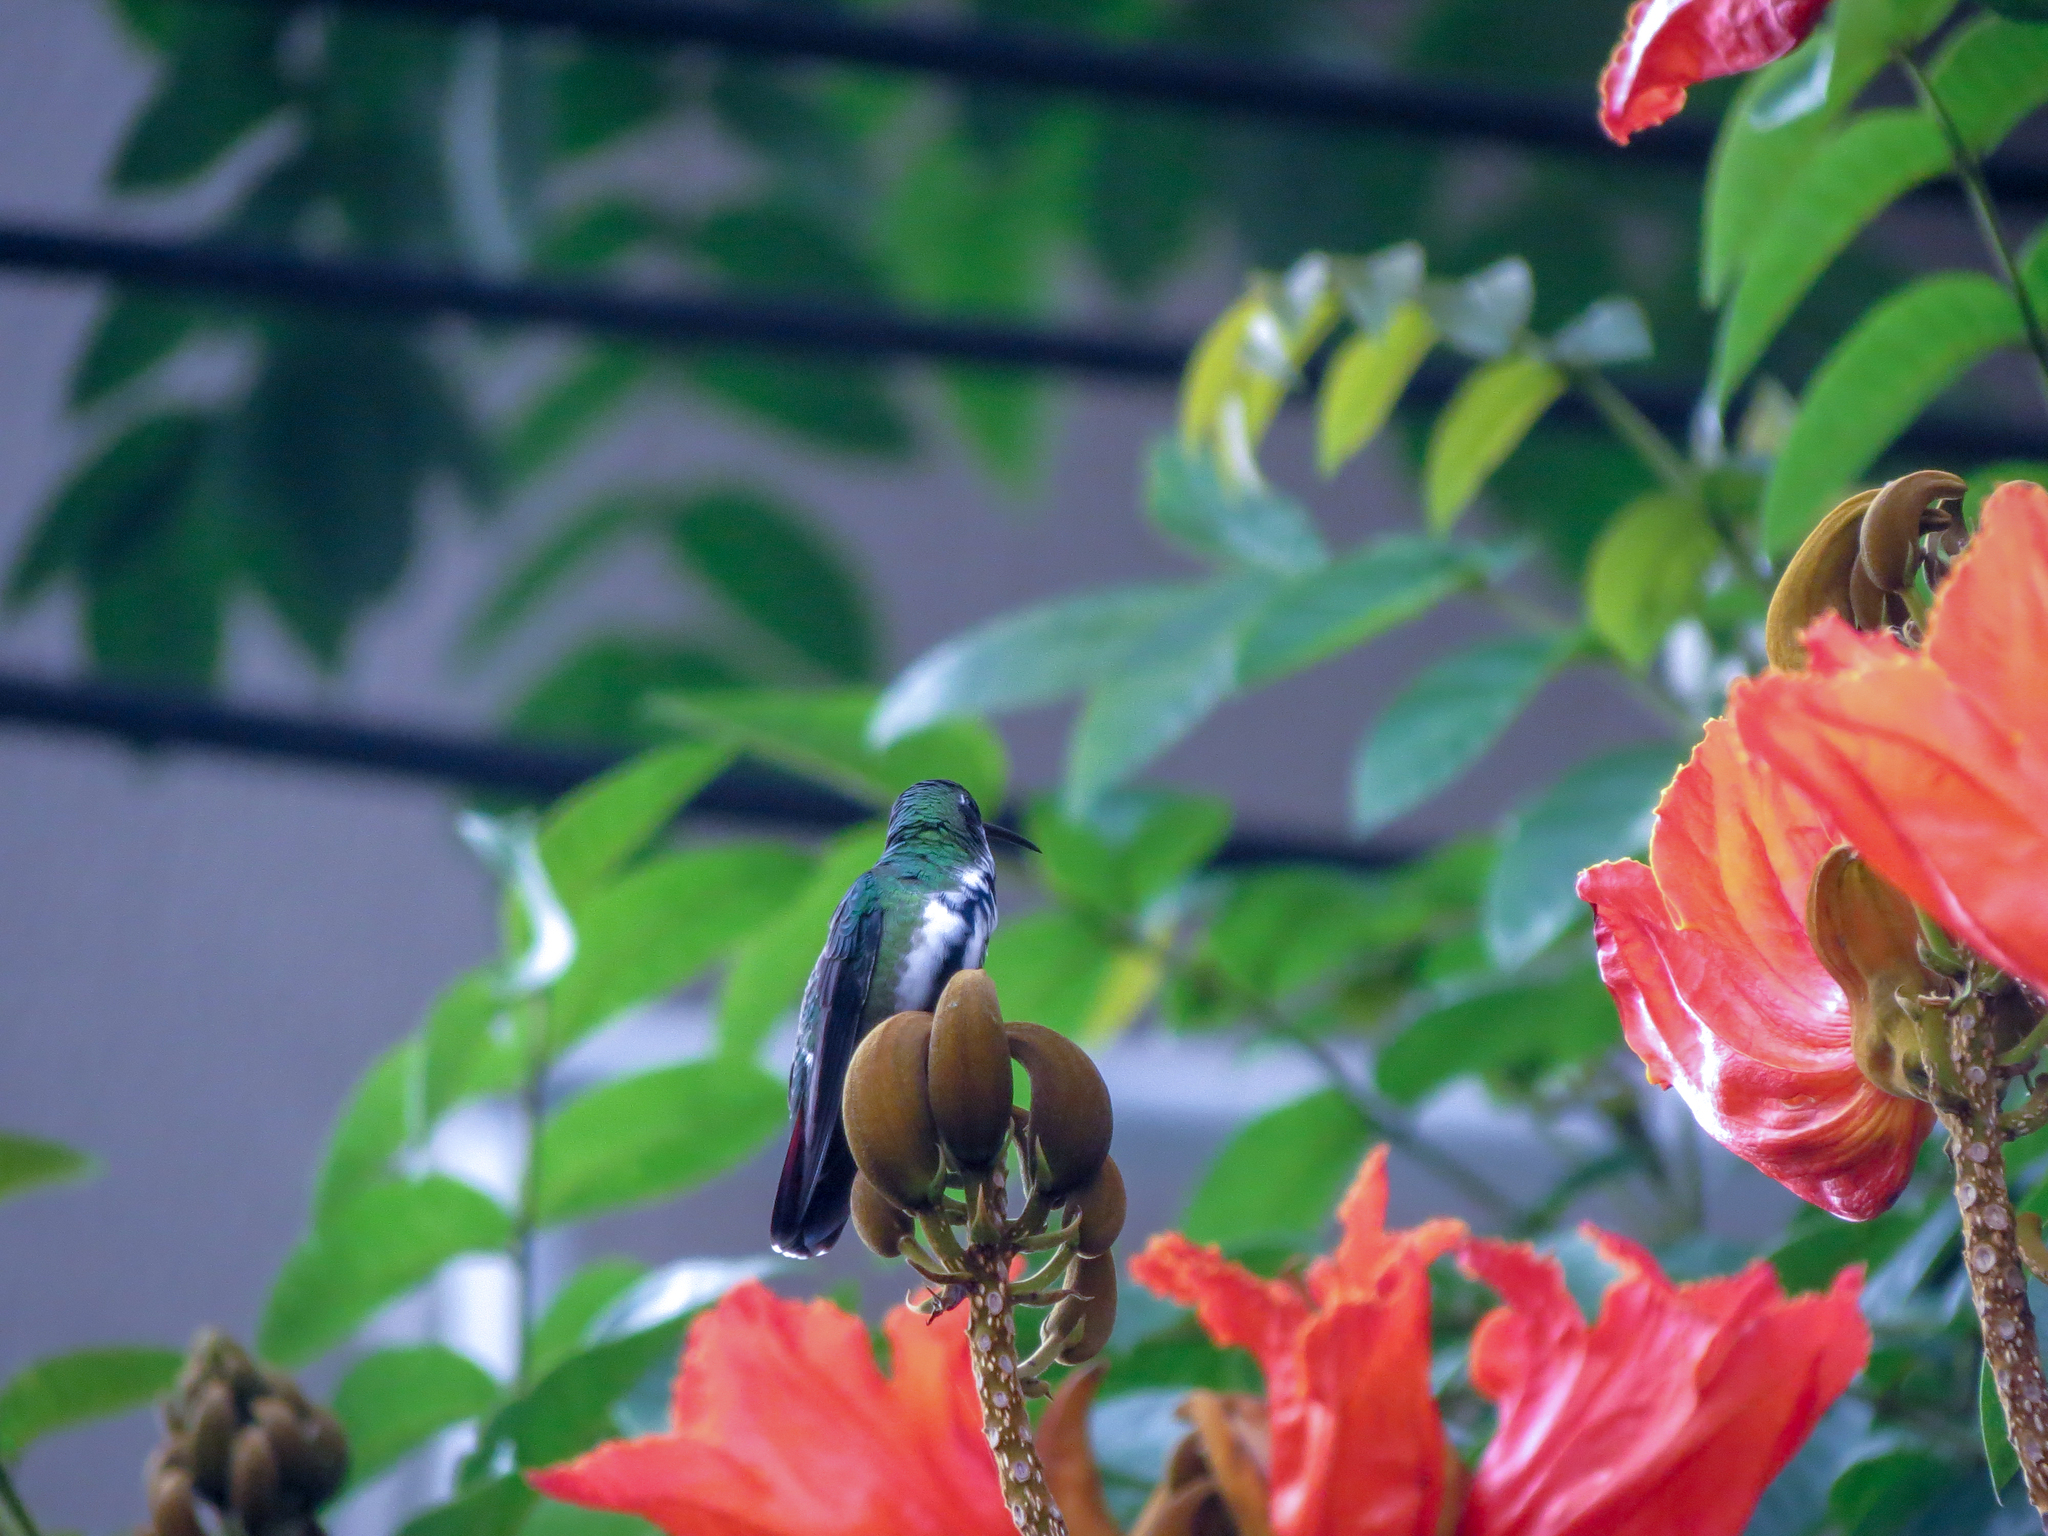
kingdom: Animalia
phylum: Chordata
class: Aves
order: Apodiformes
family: Trochilidae
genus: Anthracothorax
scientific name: Anthracothorax nigricollis
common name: Black-throated mango
